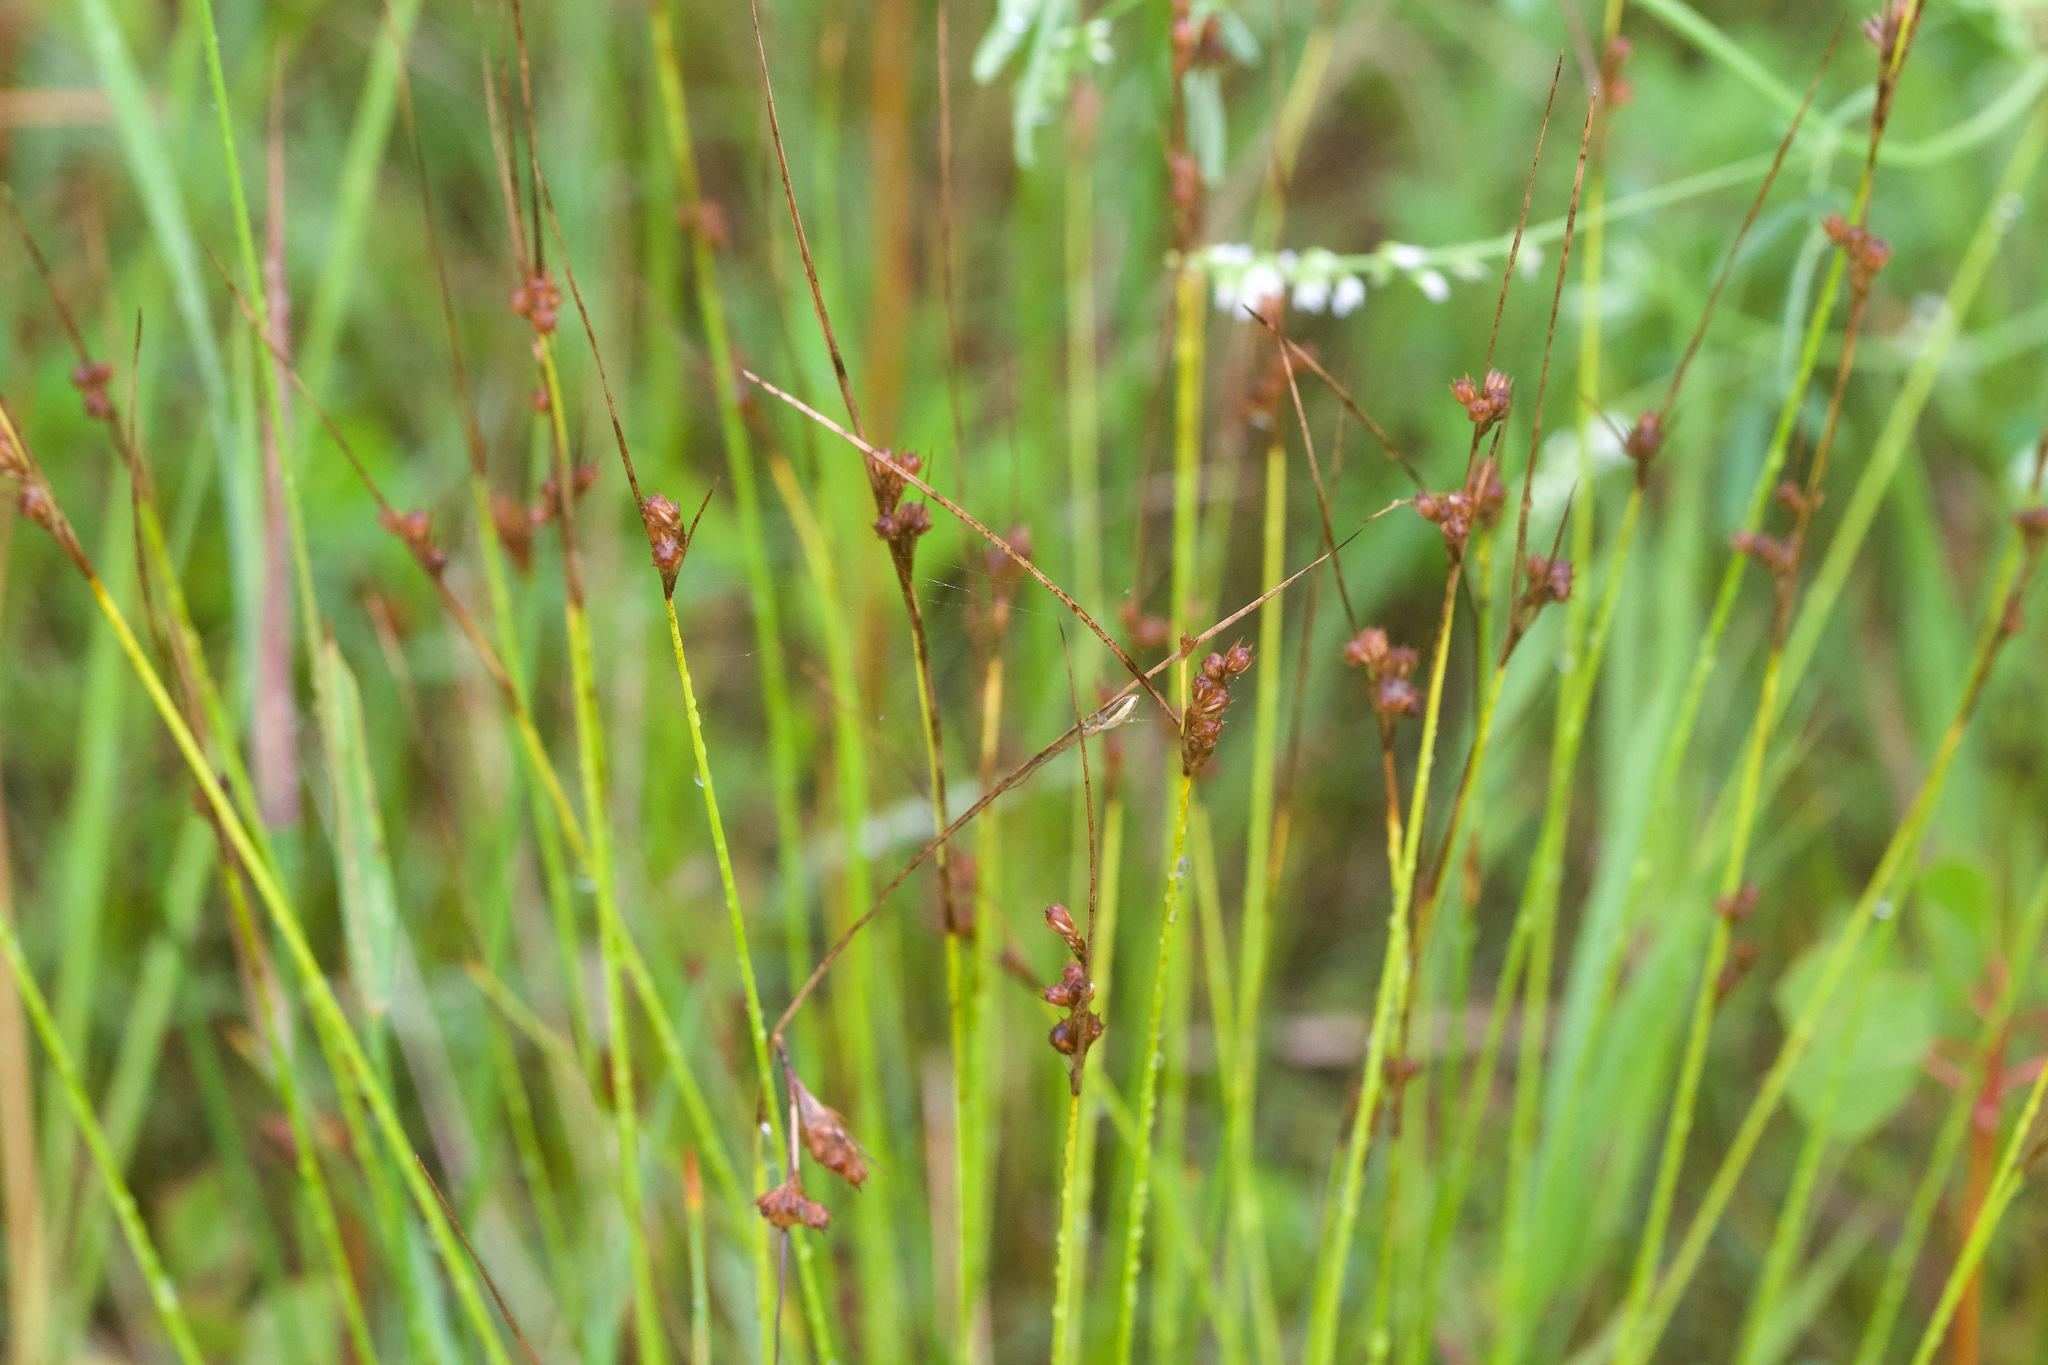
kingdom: Plantae
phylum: Tracheophyta
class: Liliopsida
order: Poales
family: Juncaceae
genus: Juncus
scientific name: Juncus dudleyi
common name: Dudley's rush
